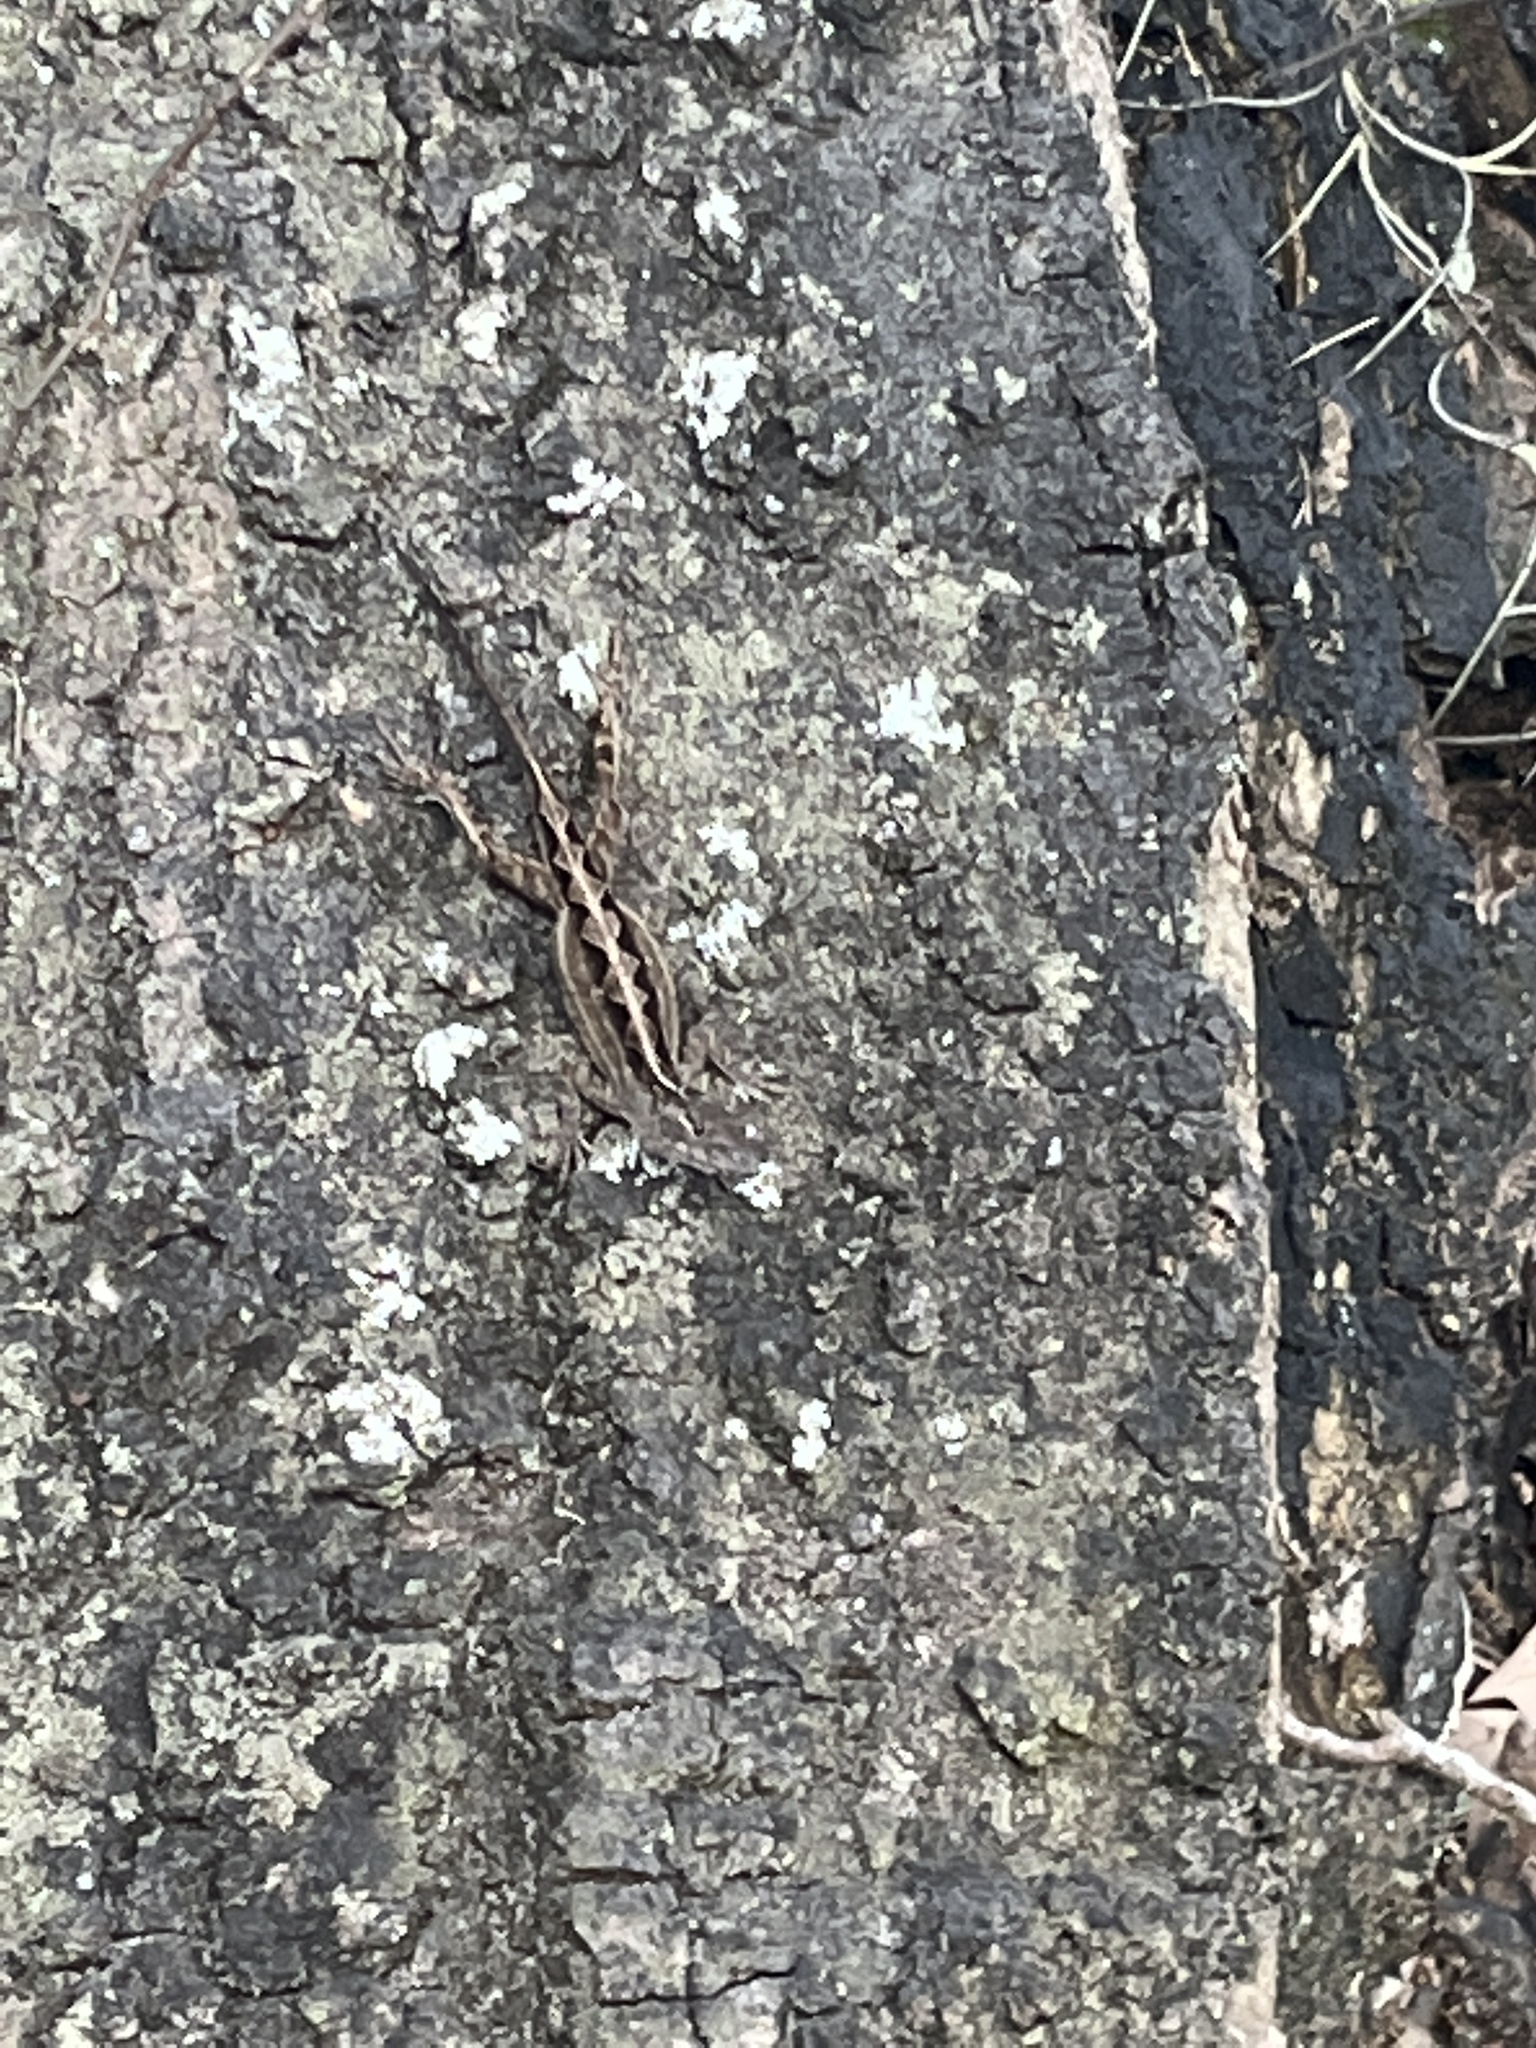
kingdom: Animalia
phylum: Chordata
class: Squamata
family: Dactyloidae
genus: Anolis
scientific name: Anolis sagrei
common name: Brown anole
